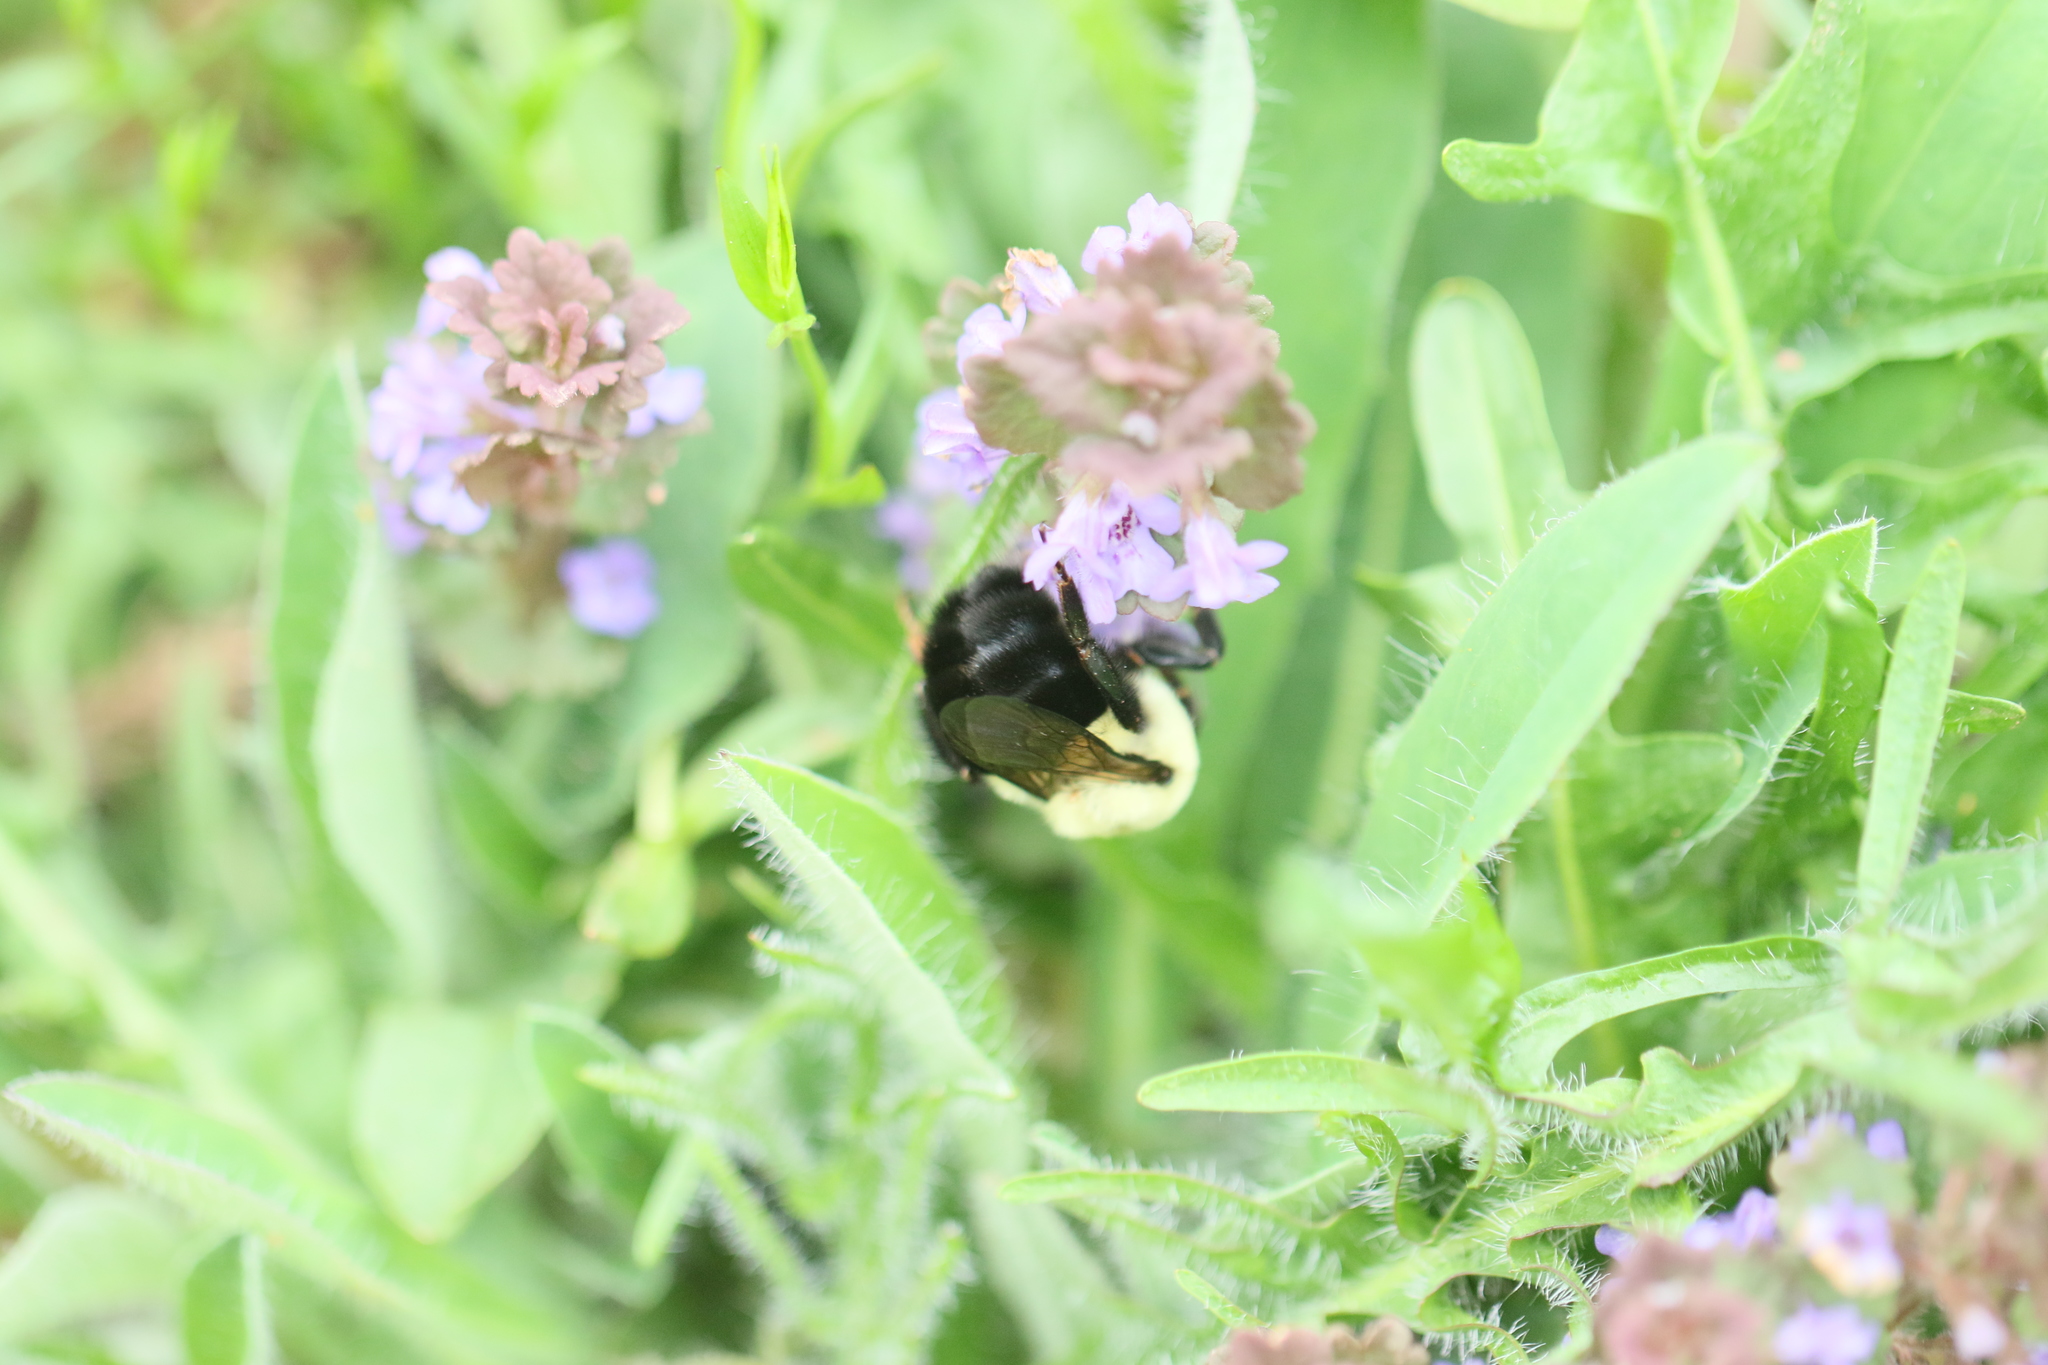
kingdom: Animalia
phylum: Arthropoda
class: Insecta
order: Hymenoptera
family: Apidae
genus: Bombus
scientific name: Bombus impatiens
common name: Common eastern bumble bee
